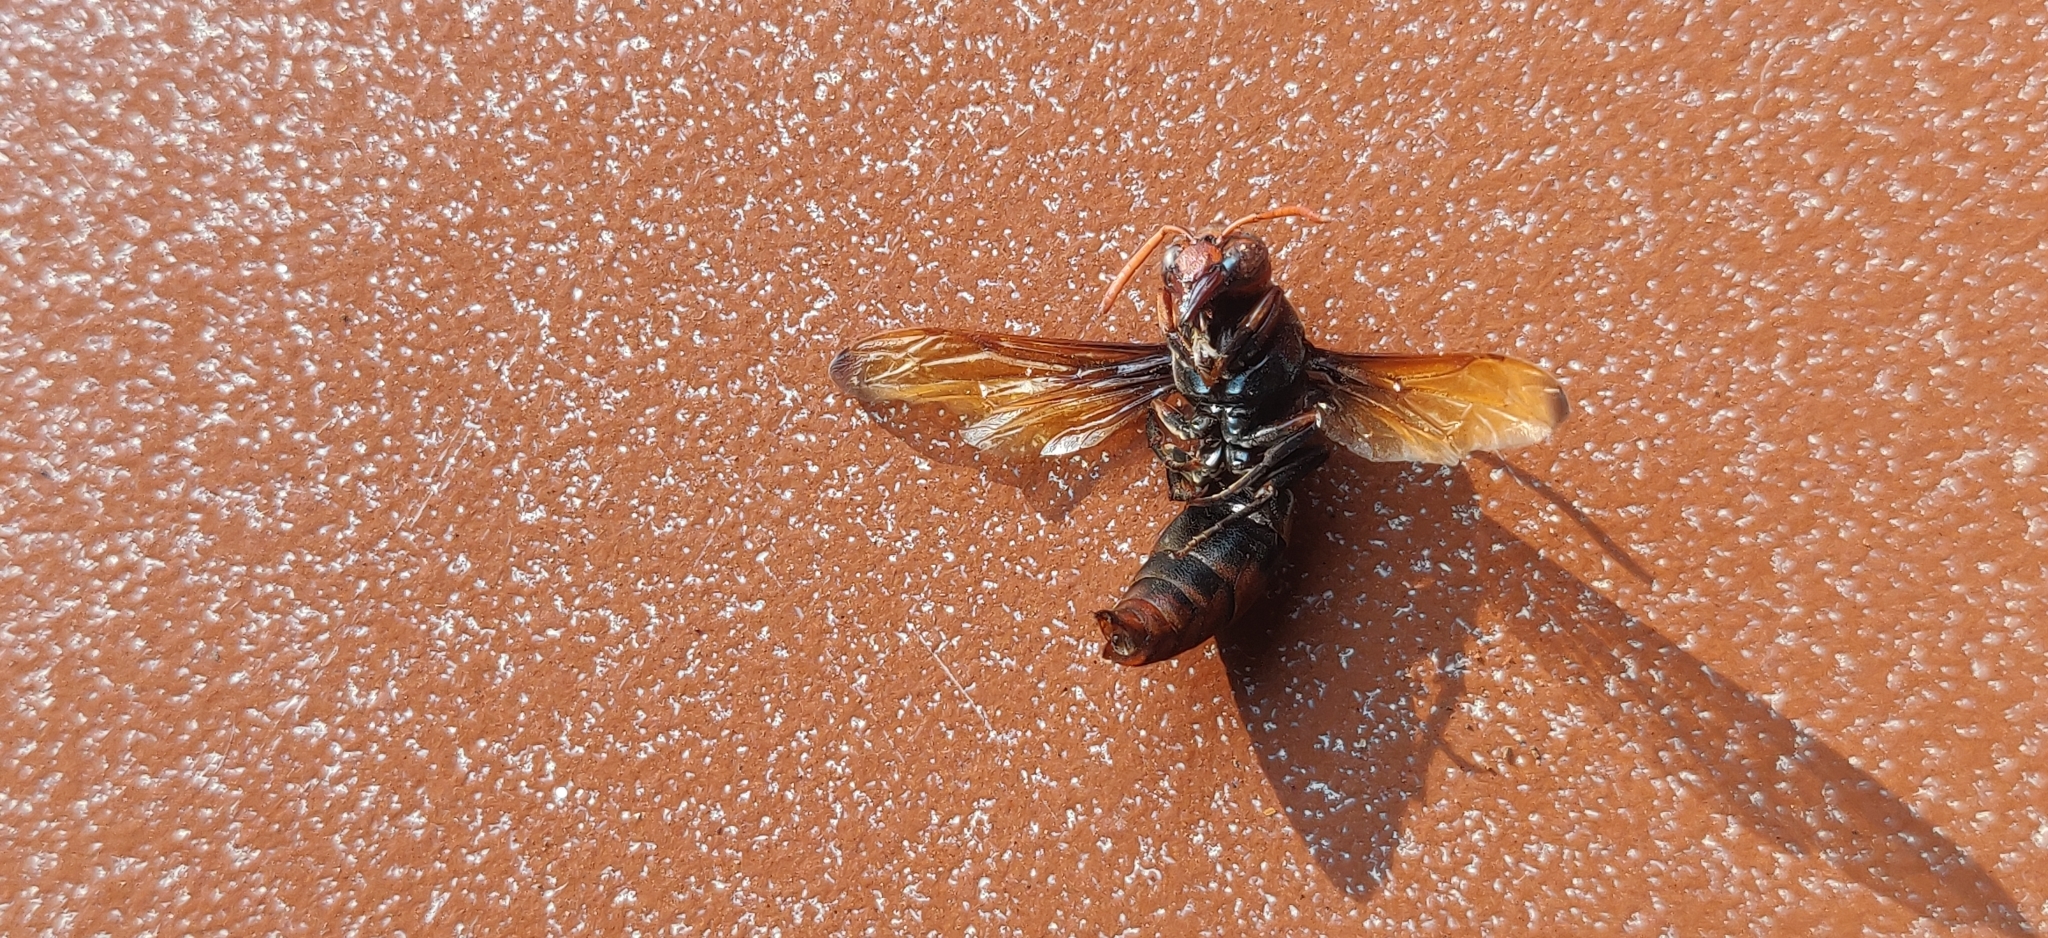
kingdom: Animalia
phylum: Arthropoda
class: Insecta
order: Hymenoptera
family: Eumenidae
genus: Rhynchium
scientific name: Rhynchium brunneum
